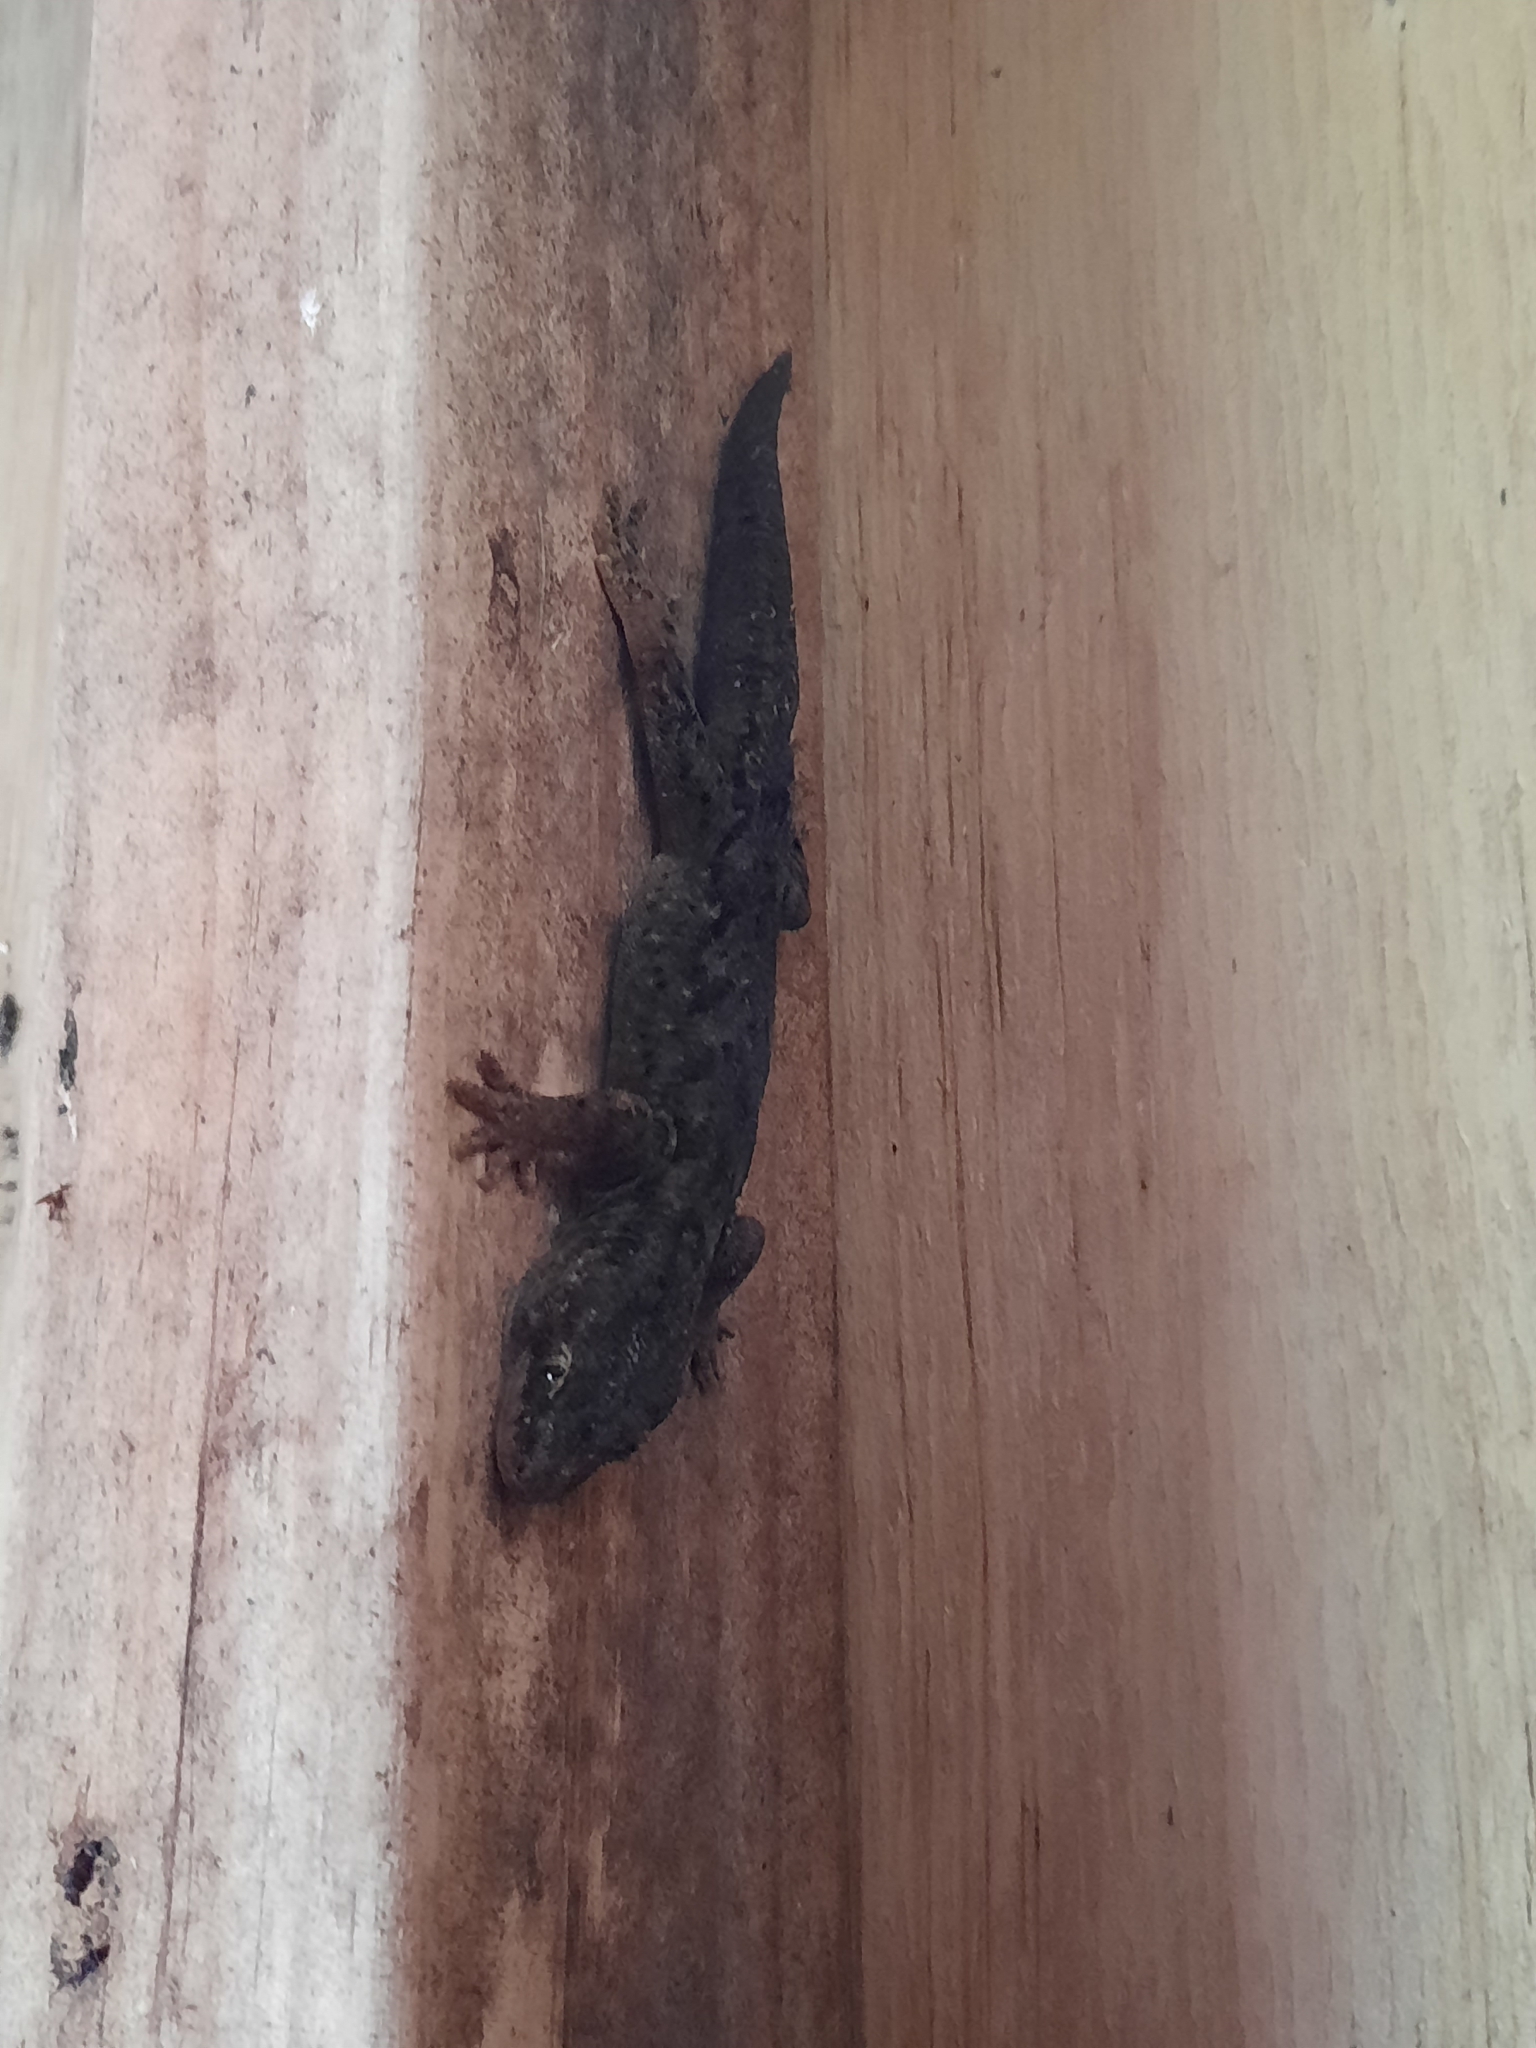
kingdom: Animalia
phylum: Chordata
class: Squamata
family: Diplodactylidae
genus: Woodworthia
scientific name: Woodworthia maculata
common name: Raukawa gecko
